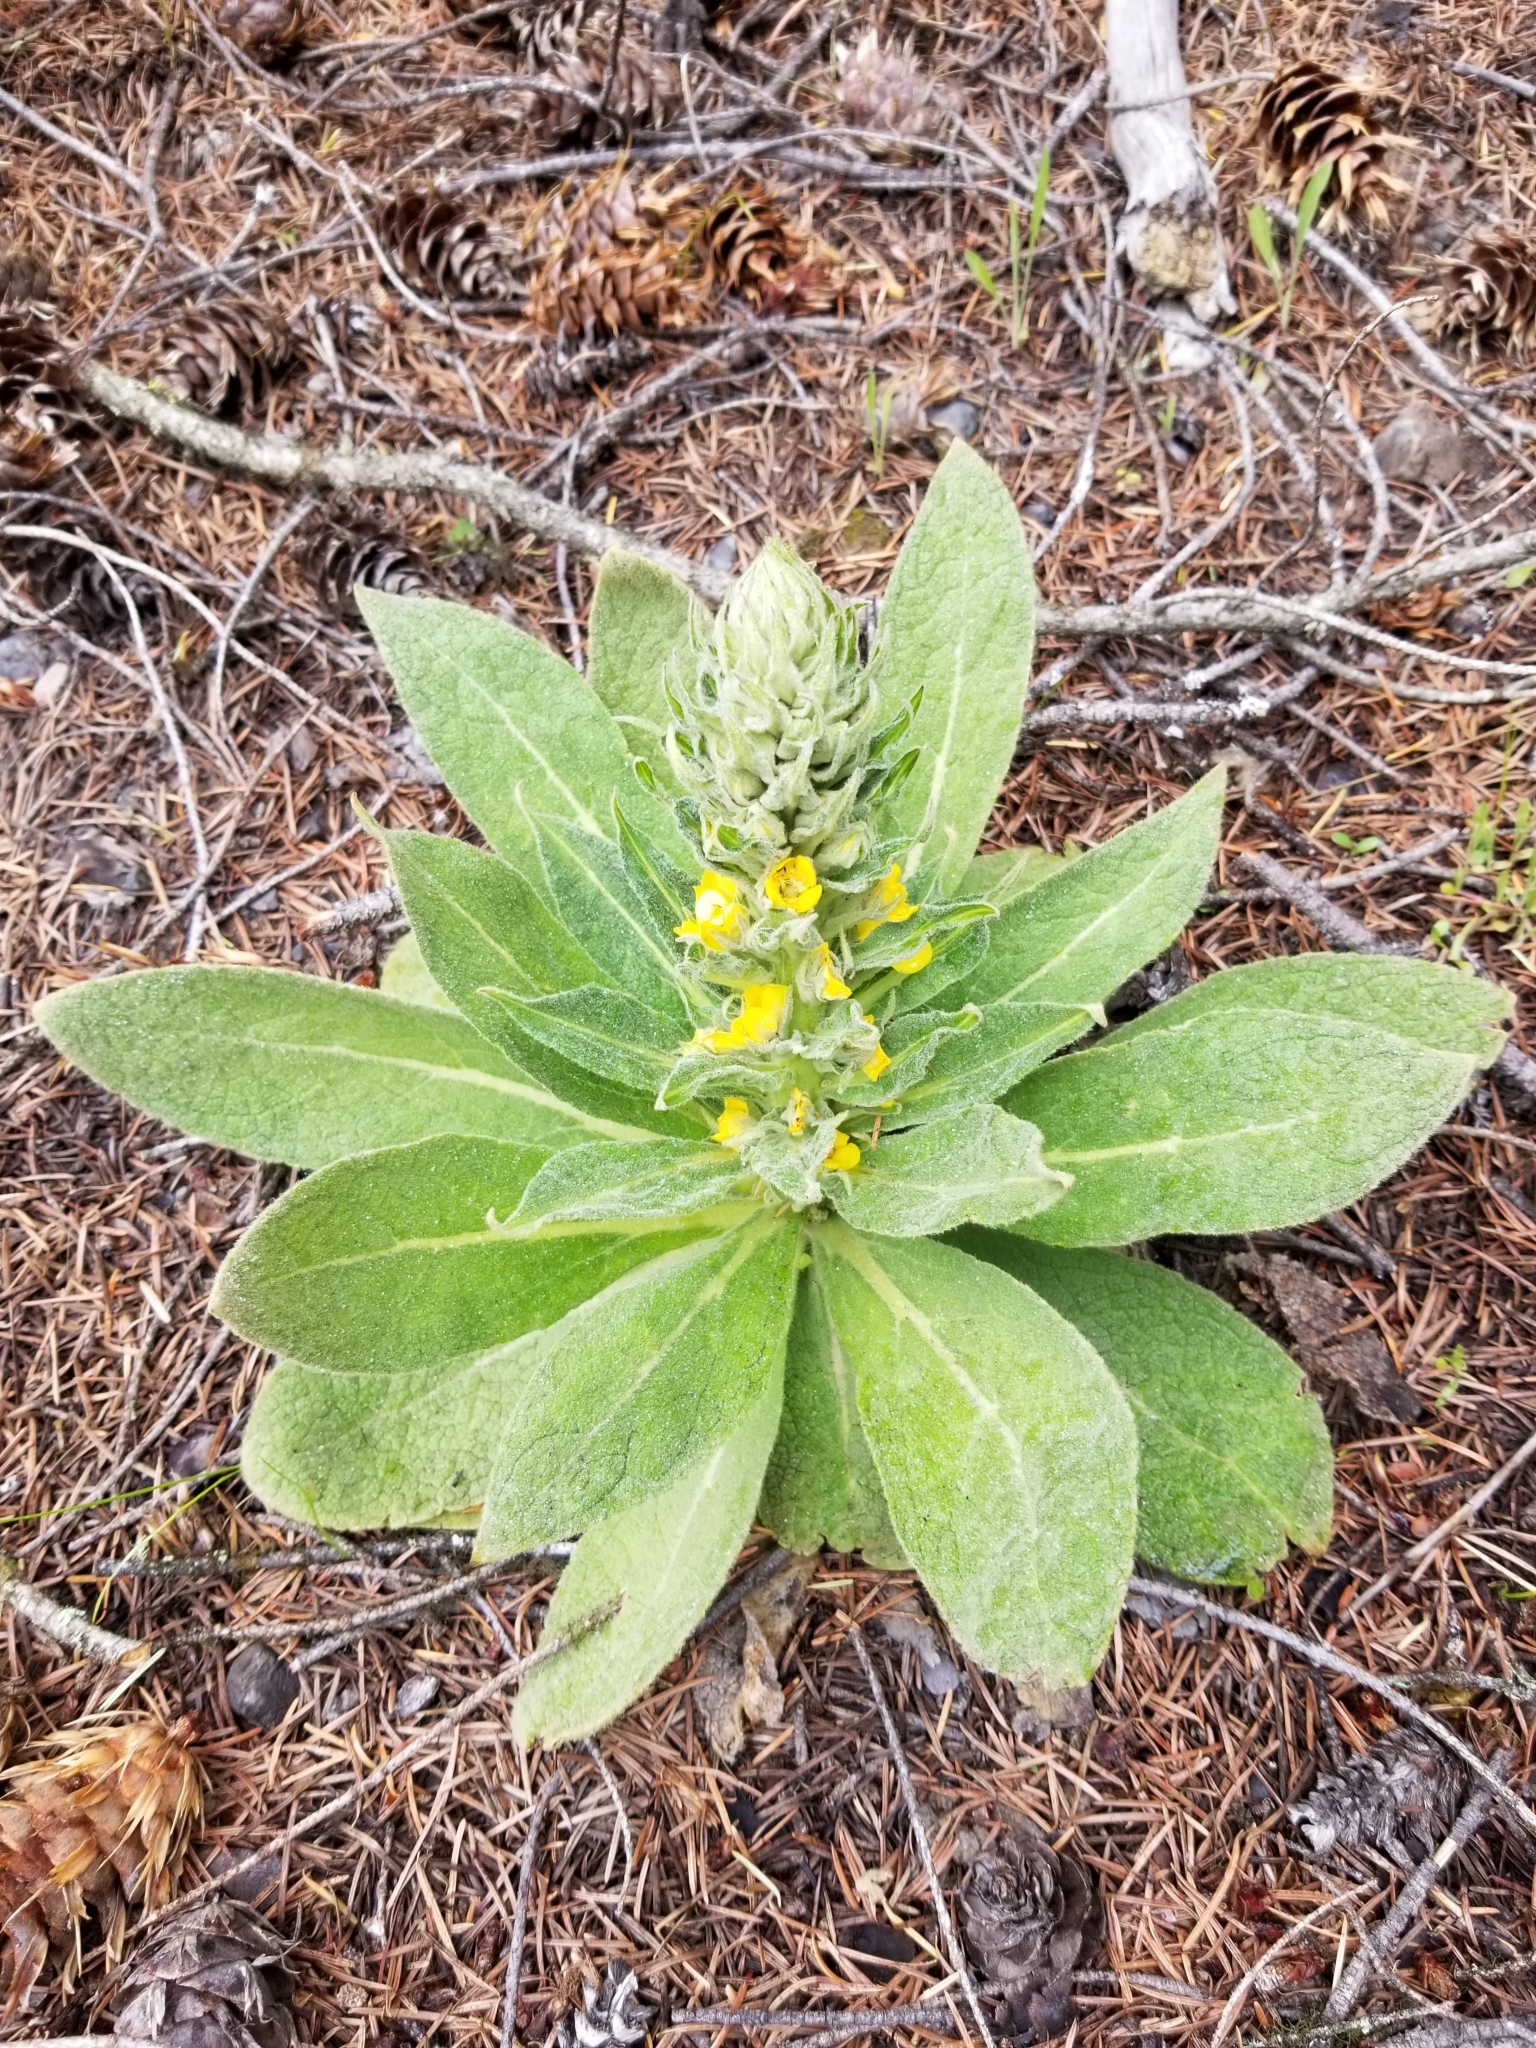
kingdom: Plantae
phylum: Tracheophyta
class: Magnoliopsida
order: Lamiales
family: Scrophulariaceae
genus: Verbascum
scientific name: Verbascum thapsus
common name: Common mullein
